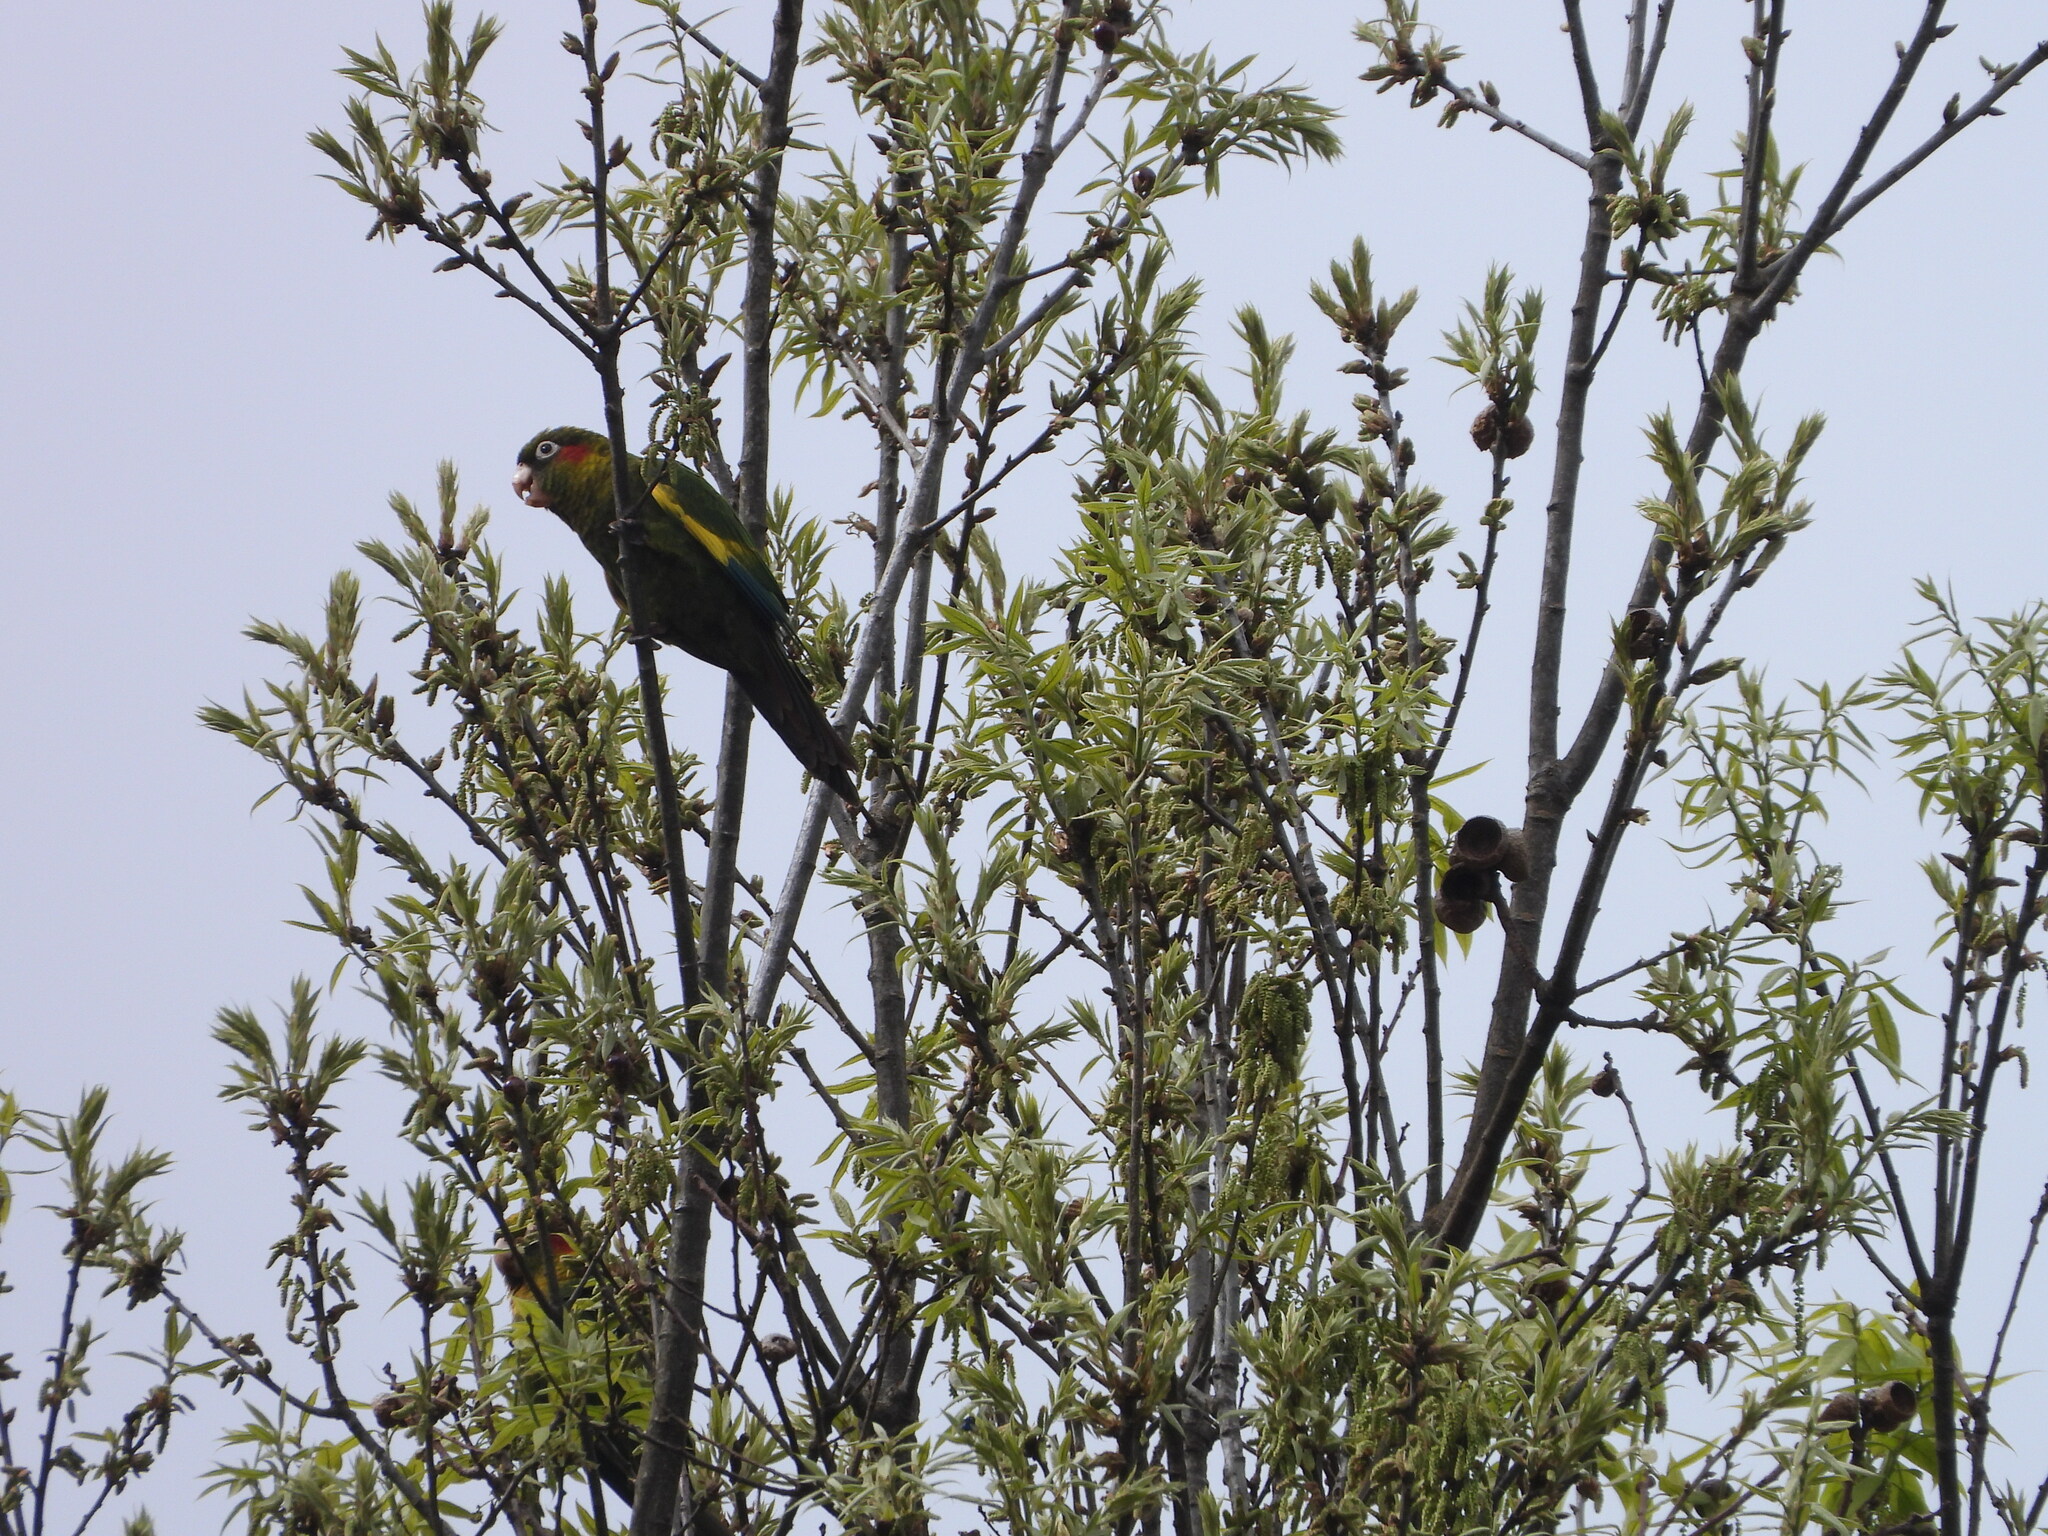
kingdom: Animalia
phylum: Chordata
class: Aves
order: Psittaciformes
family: Psittacidae
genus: Pyrrhura
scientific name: Pyrrhura hoffmanni
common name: Sulphur-winged parakeet
